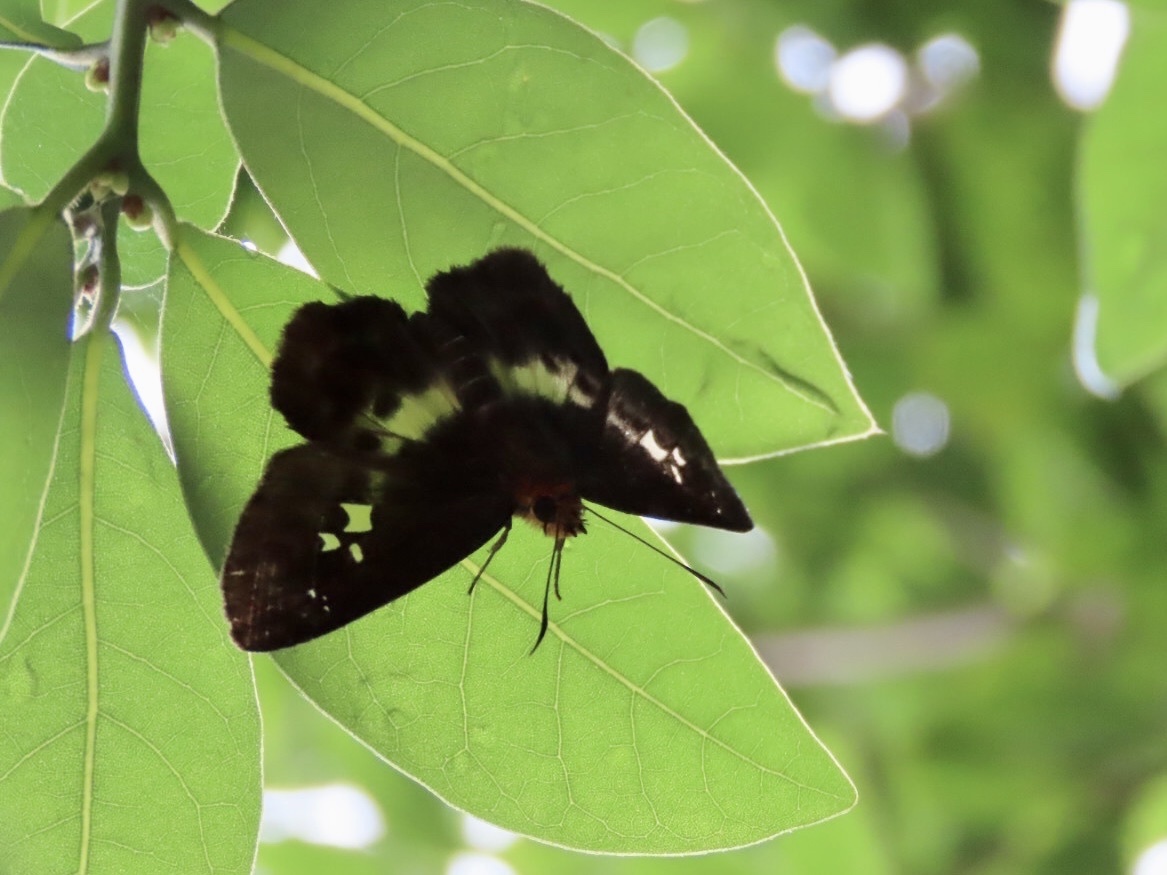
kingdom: Animalia
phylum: Arthropoda
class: Insecta
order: Lepidoptera
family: Hesperiidae
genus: Daimio
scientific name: Daimio Gerosis phisara
